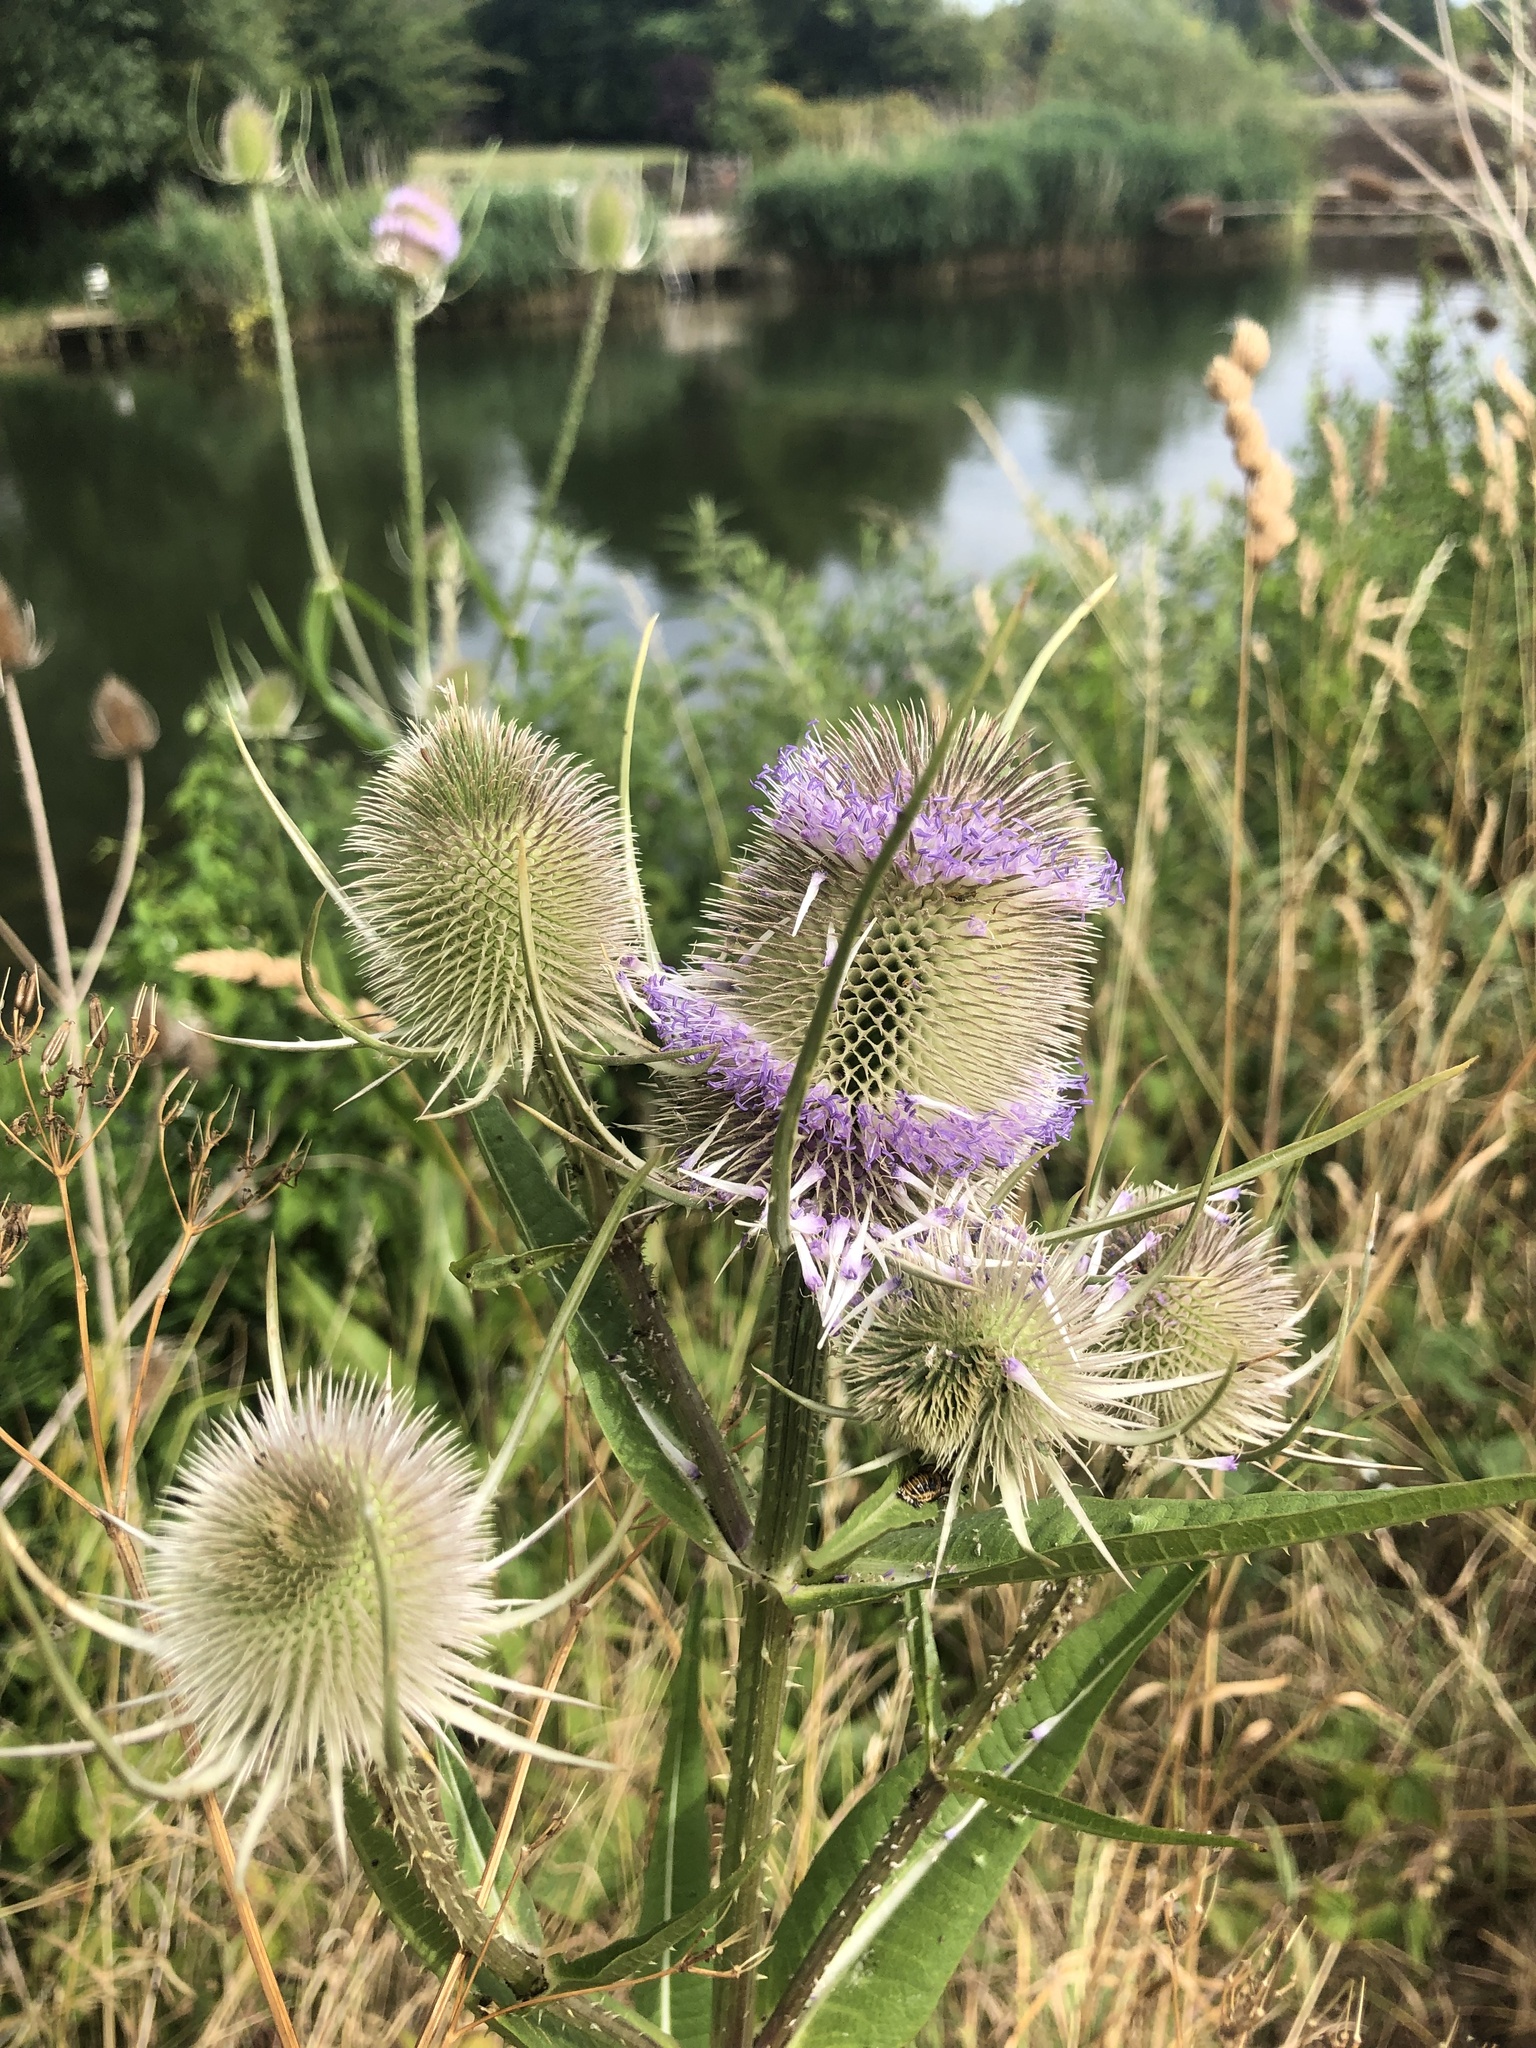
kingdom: Plantae
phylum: Tracheophyta
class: Magnoliopsida
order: Dipsacales
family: Caprifoliaceae
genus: Dipsacus
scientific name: Dipsacus fullonum
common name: Teasel
